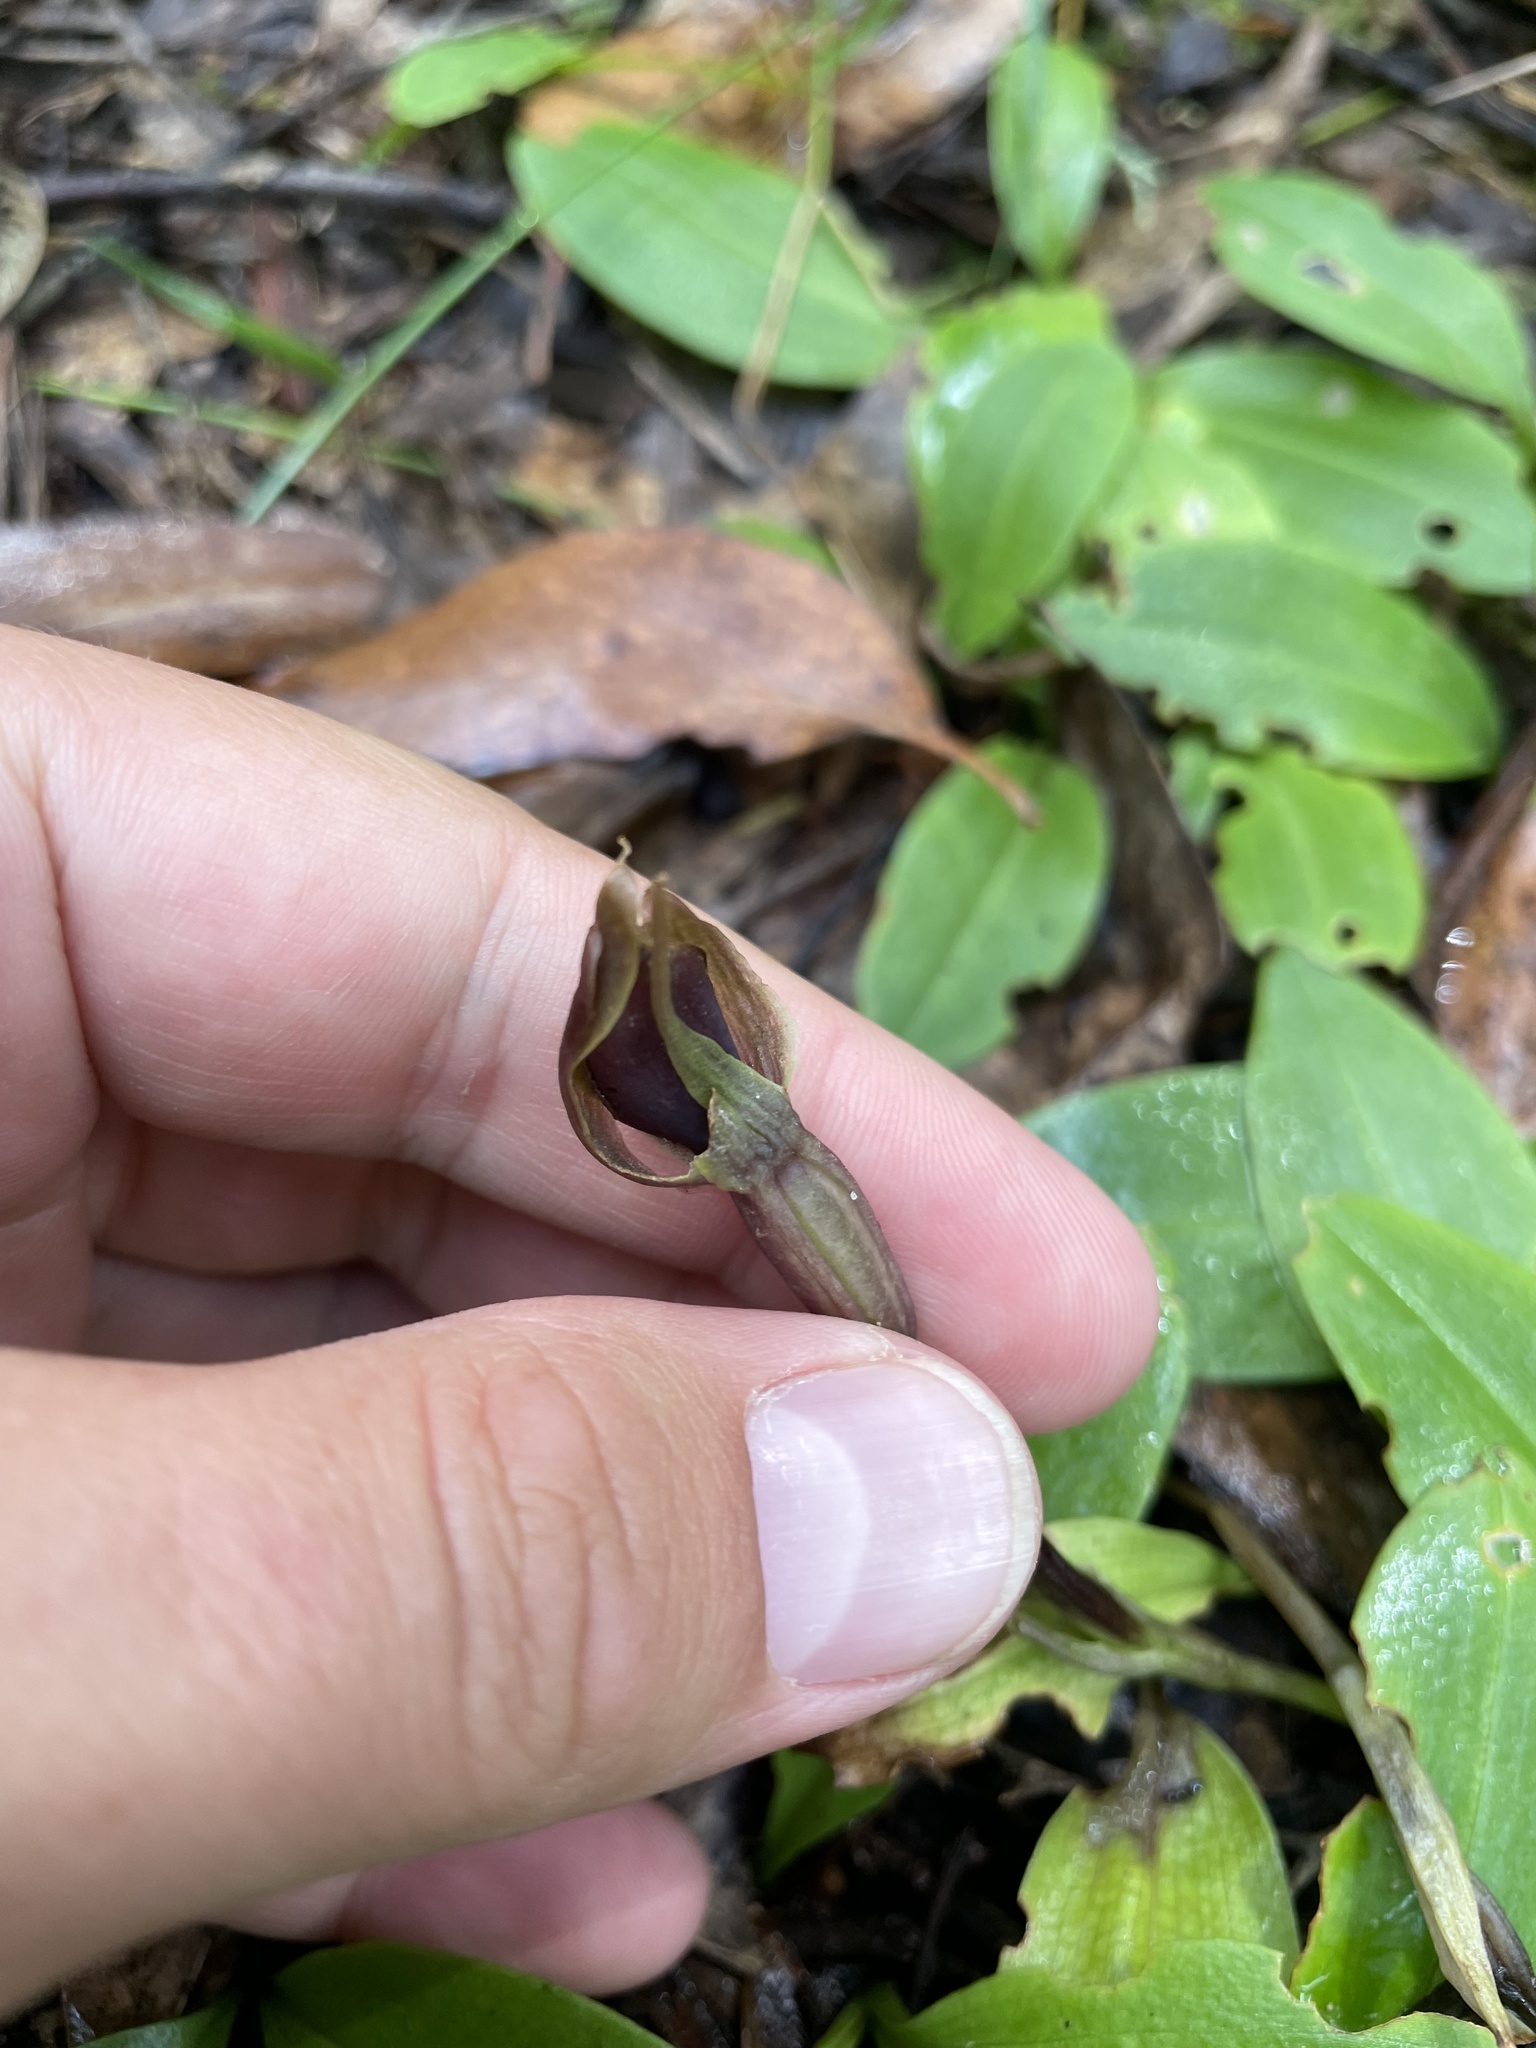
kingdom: Plantae
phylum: Tracheophyta
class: Liliopsida
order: Asparagales
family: Orchidaceae
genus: Chiloglottis
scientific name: Chiloglottis valida
